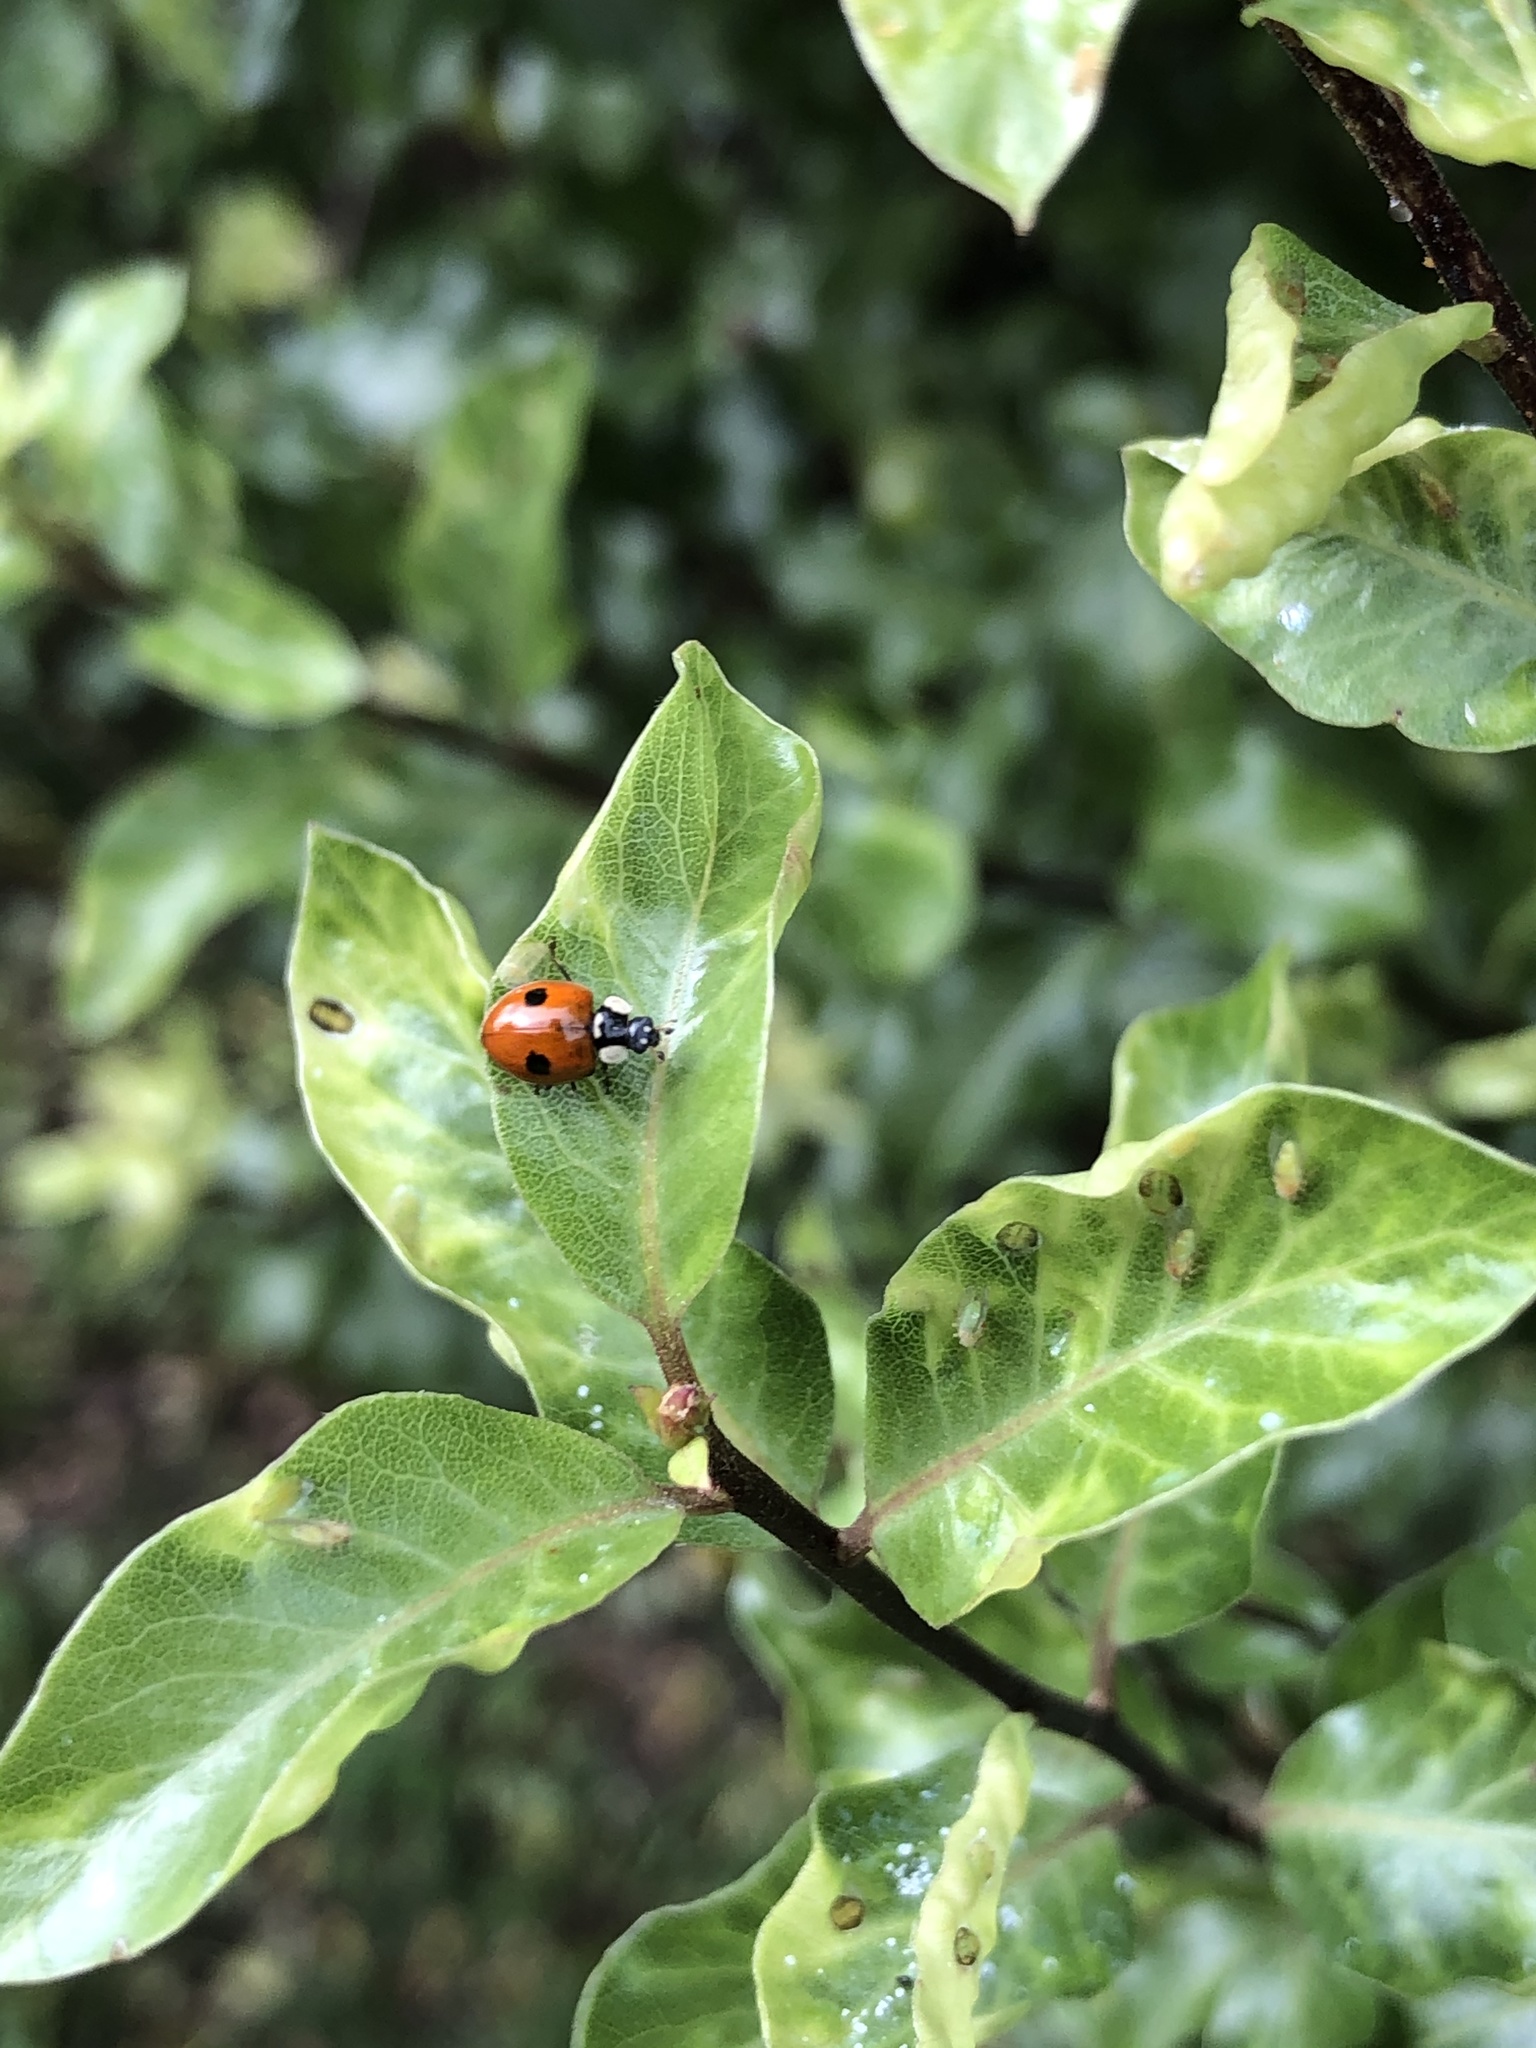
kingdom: Animalia
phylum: Arthropoda
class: Insecta
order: Coleoptera
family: Coccinellidae
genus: Adalia
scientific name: Adalia bipunctata
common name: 2-spot ladybird
